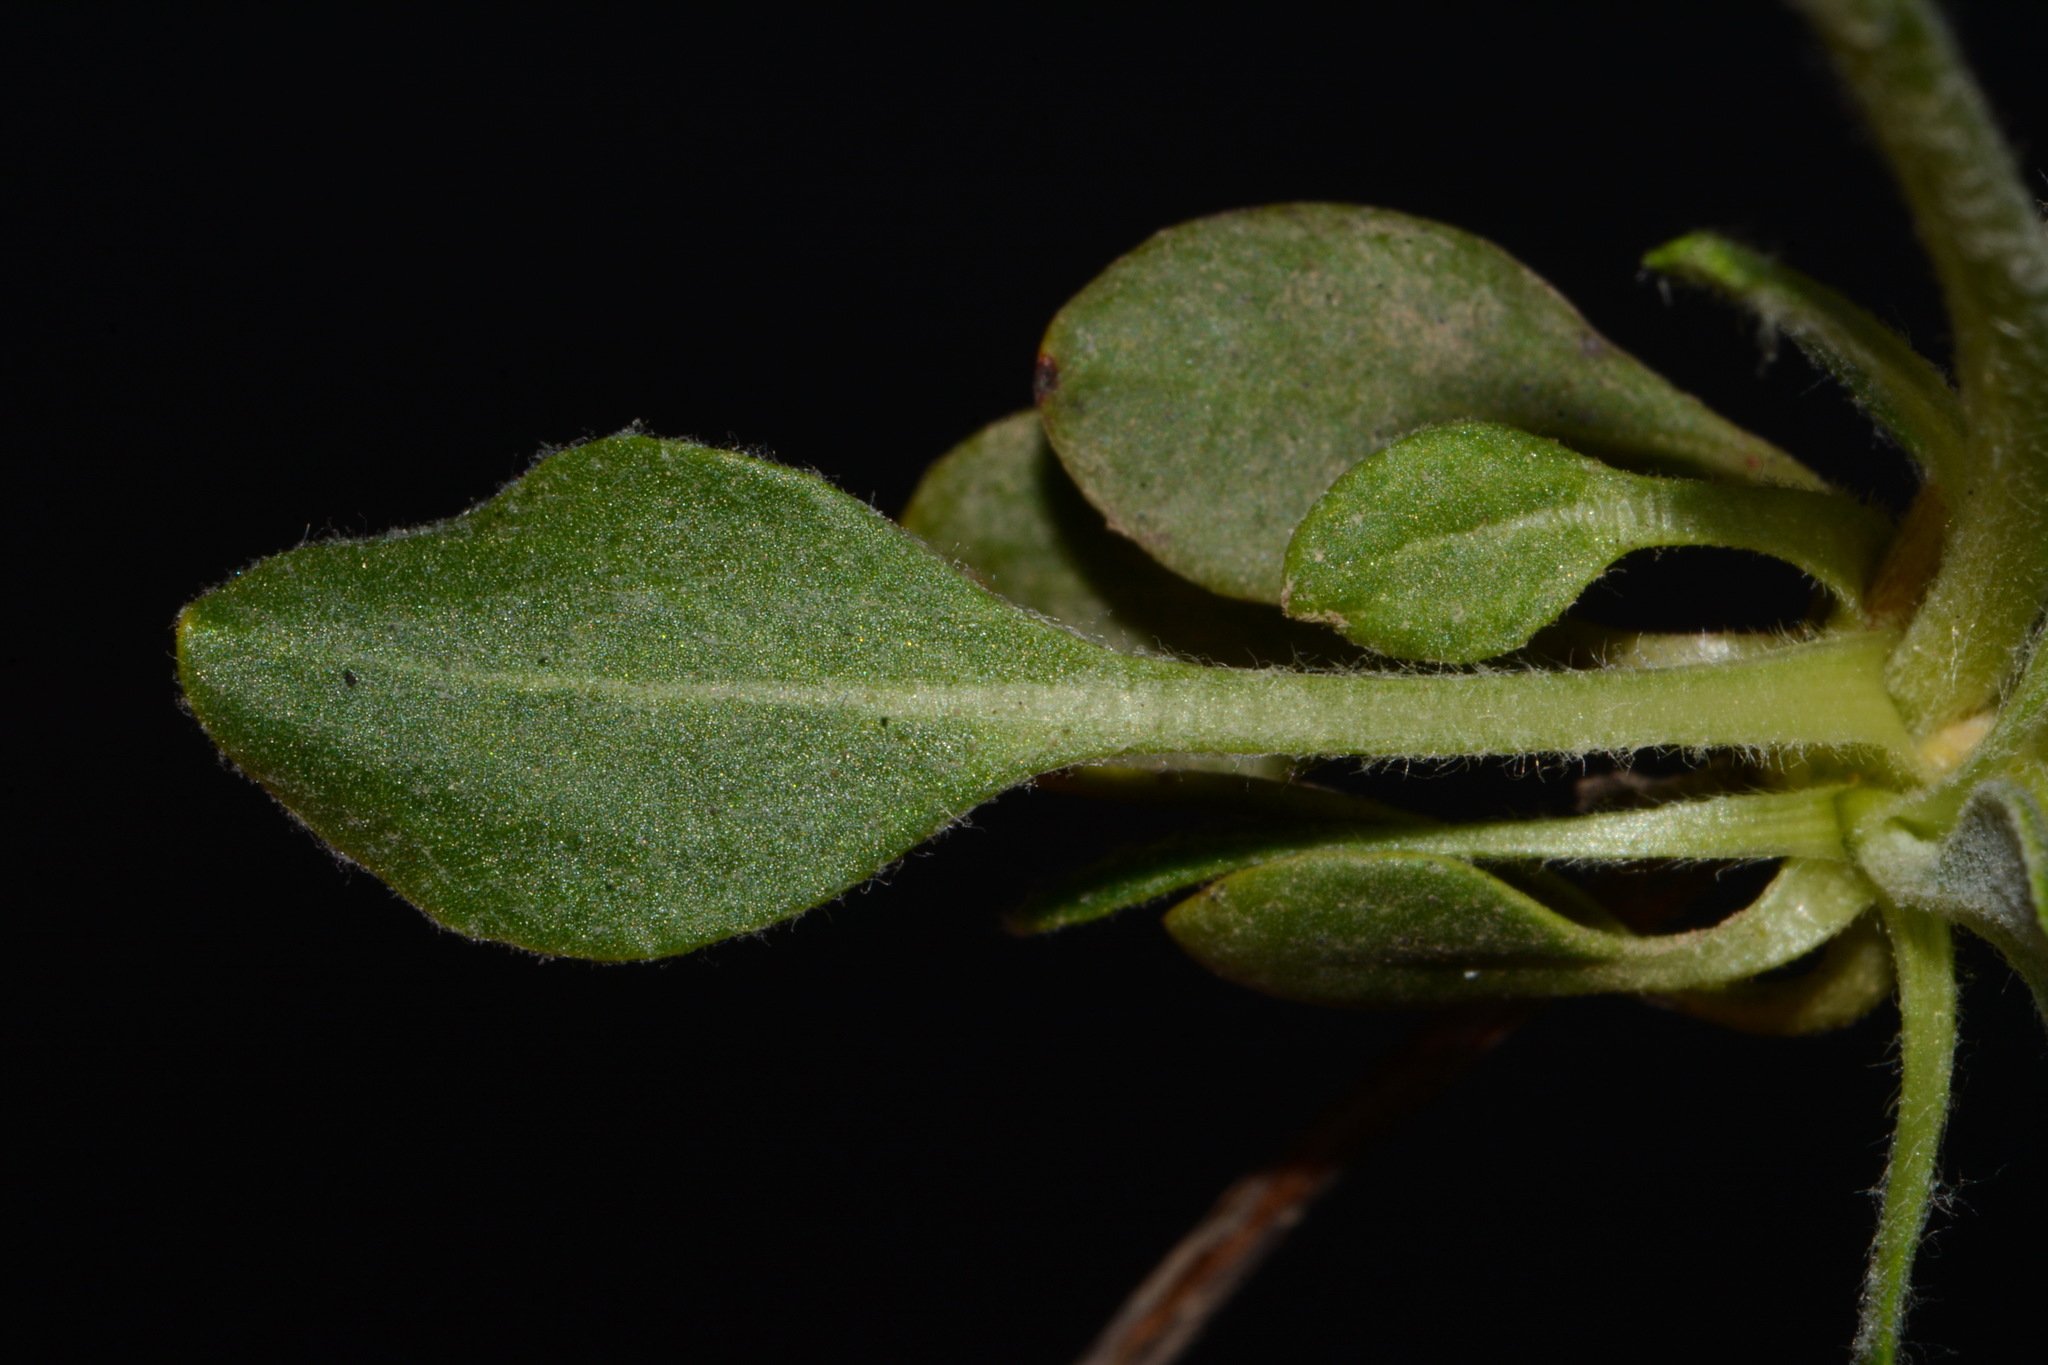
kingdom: Plantae
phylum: Tracheophyta
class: Magnoliopsida
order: Caryophyllales
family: Polygonaceae
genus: Eriogonum
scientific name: Eriogonum umbellatum
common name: Sulfur-buckwheat
